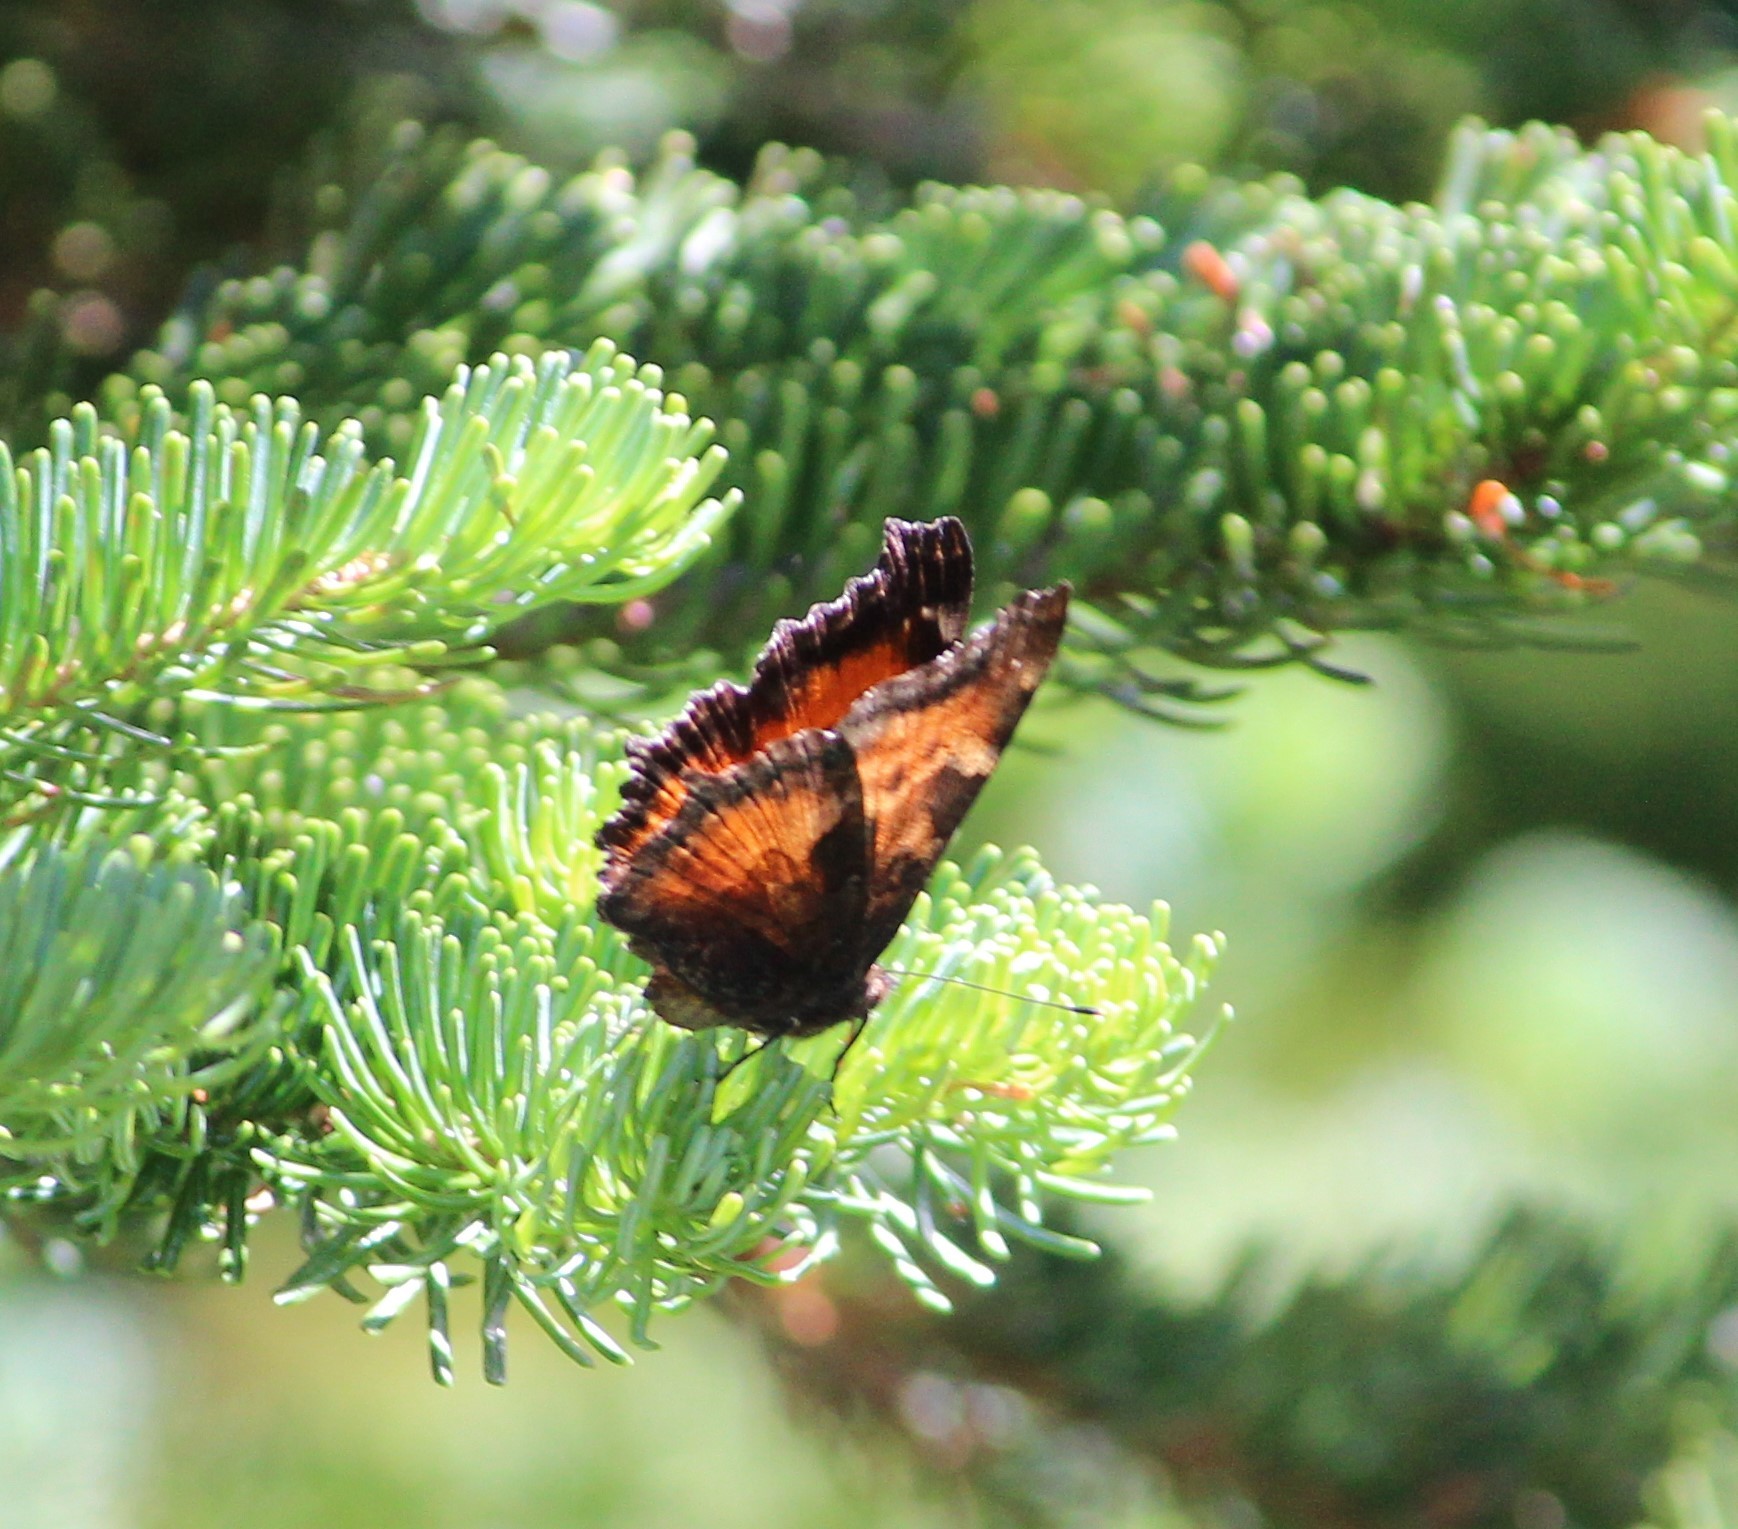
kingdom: Animalia
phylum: Arthropoda
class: Insecta
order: Lepidoptera
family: Nymphalidae
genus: Nymphalis
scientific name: Nymphalis californica
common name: California tortoiseshell
